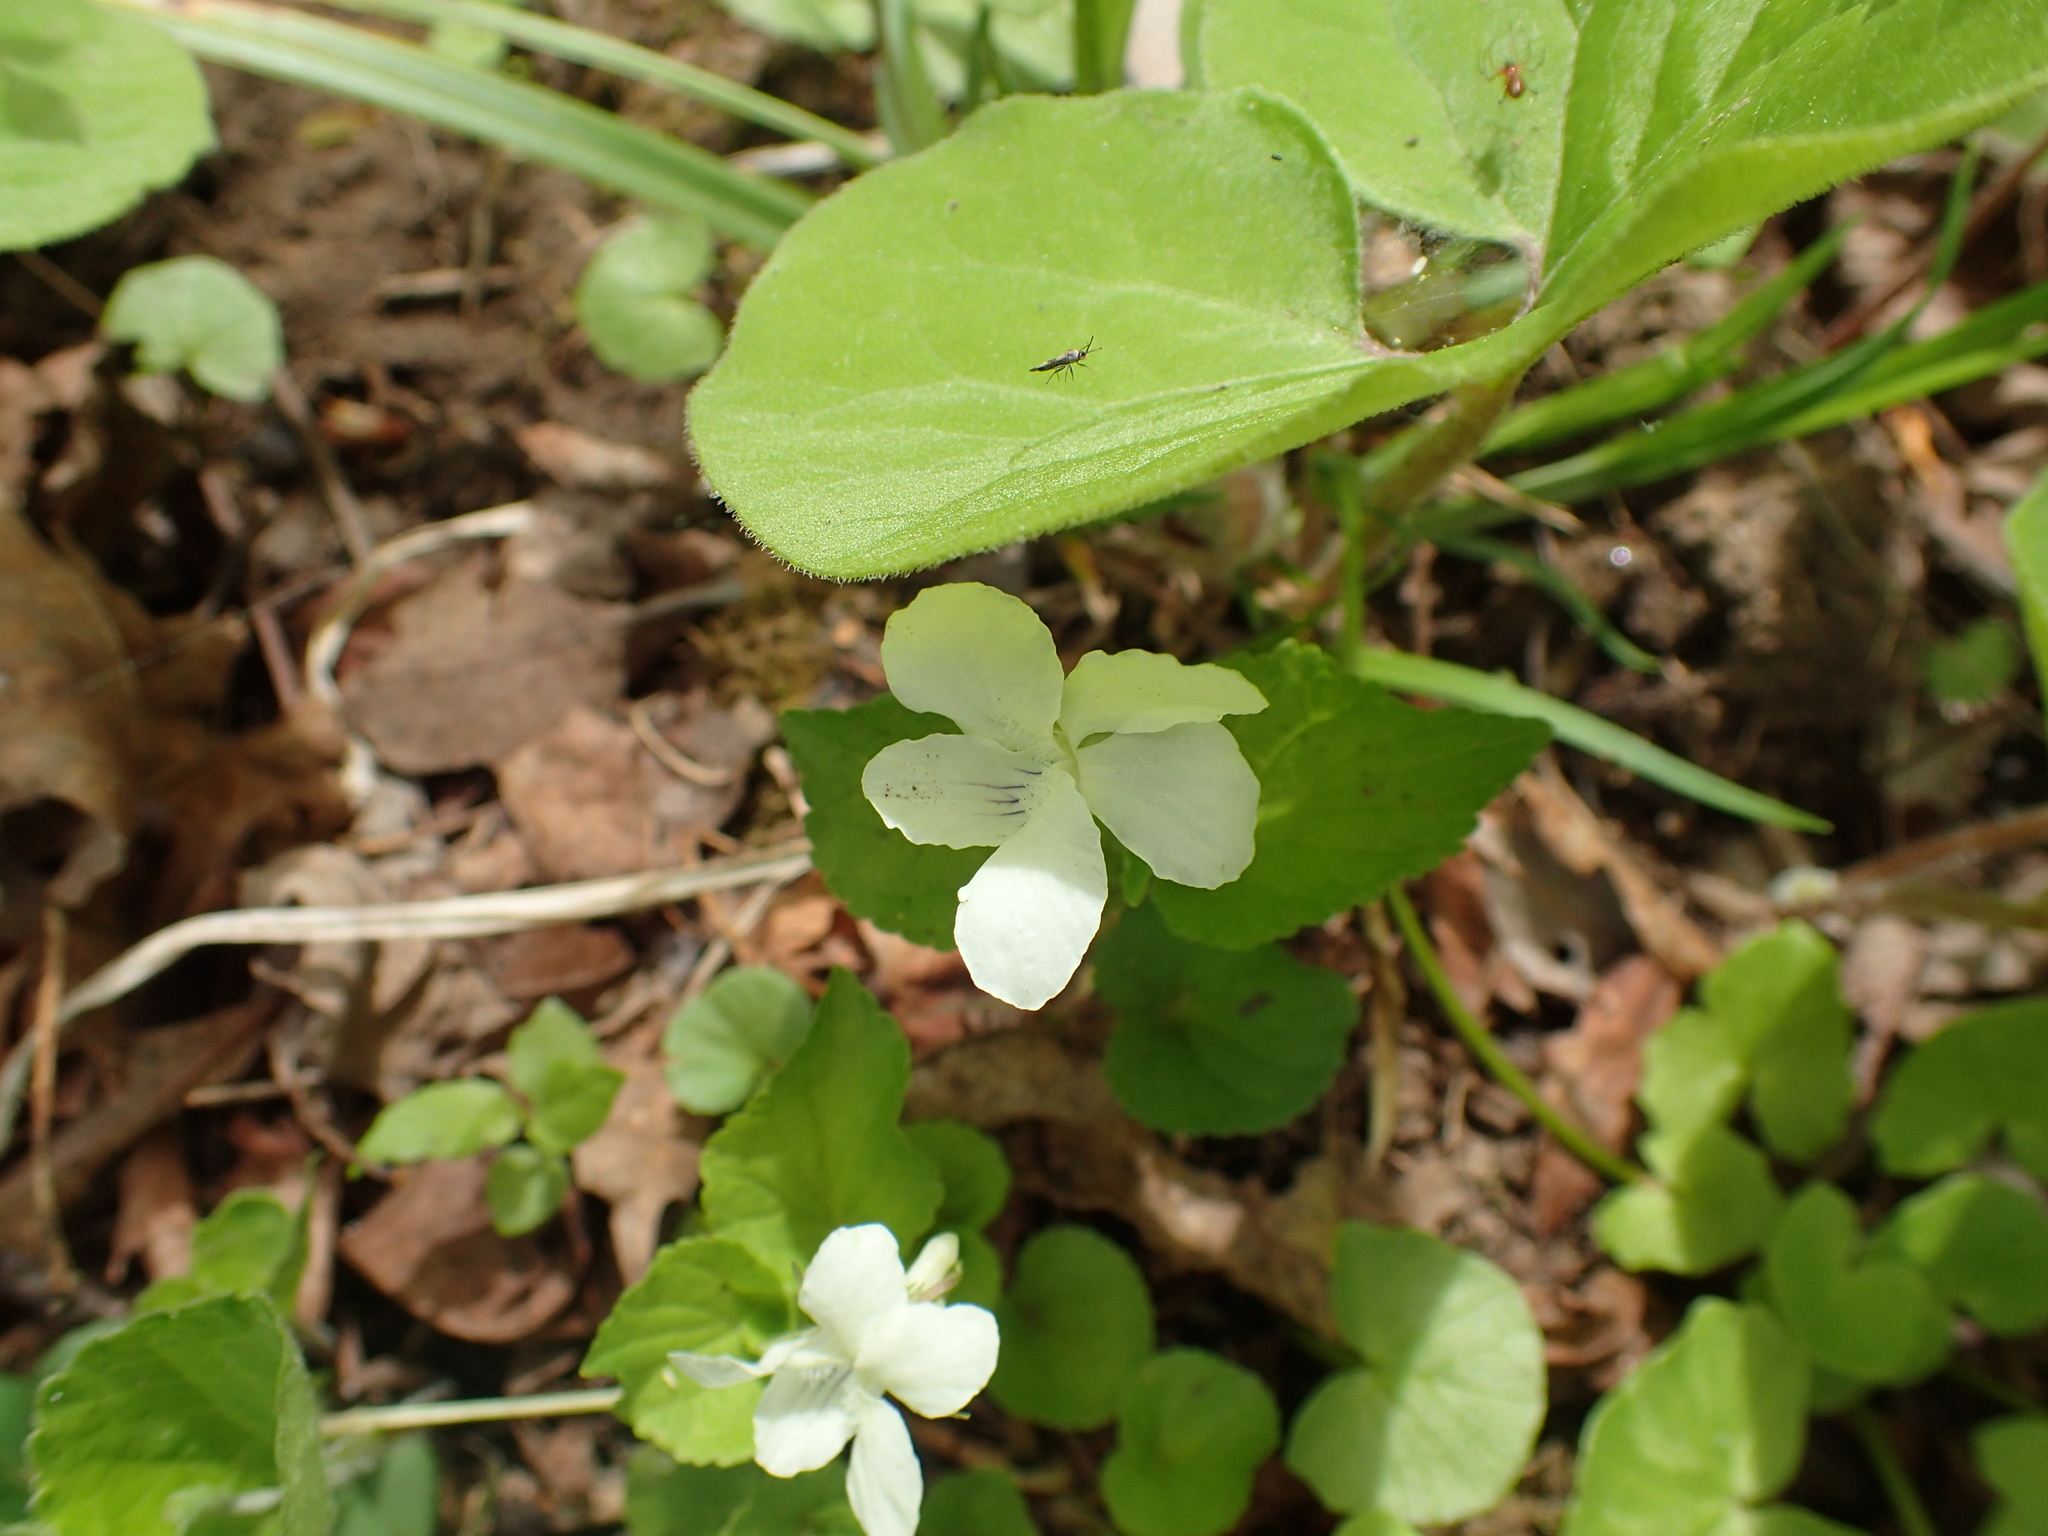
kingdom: Plantae
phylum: Tracheophyta
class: Magnoliopsida
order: Malpighiales
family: Violaceae
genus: Viola
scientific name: Viola striata
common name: Cream violet
